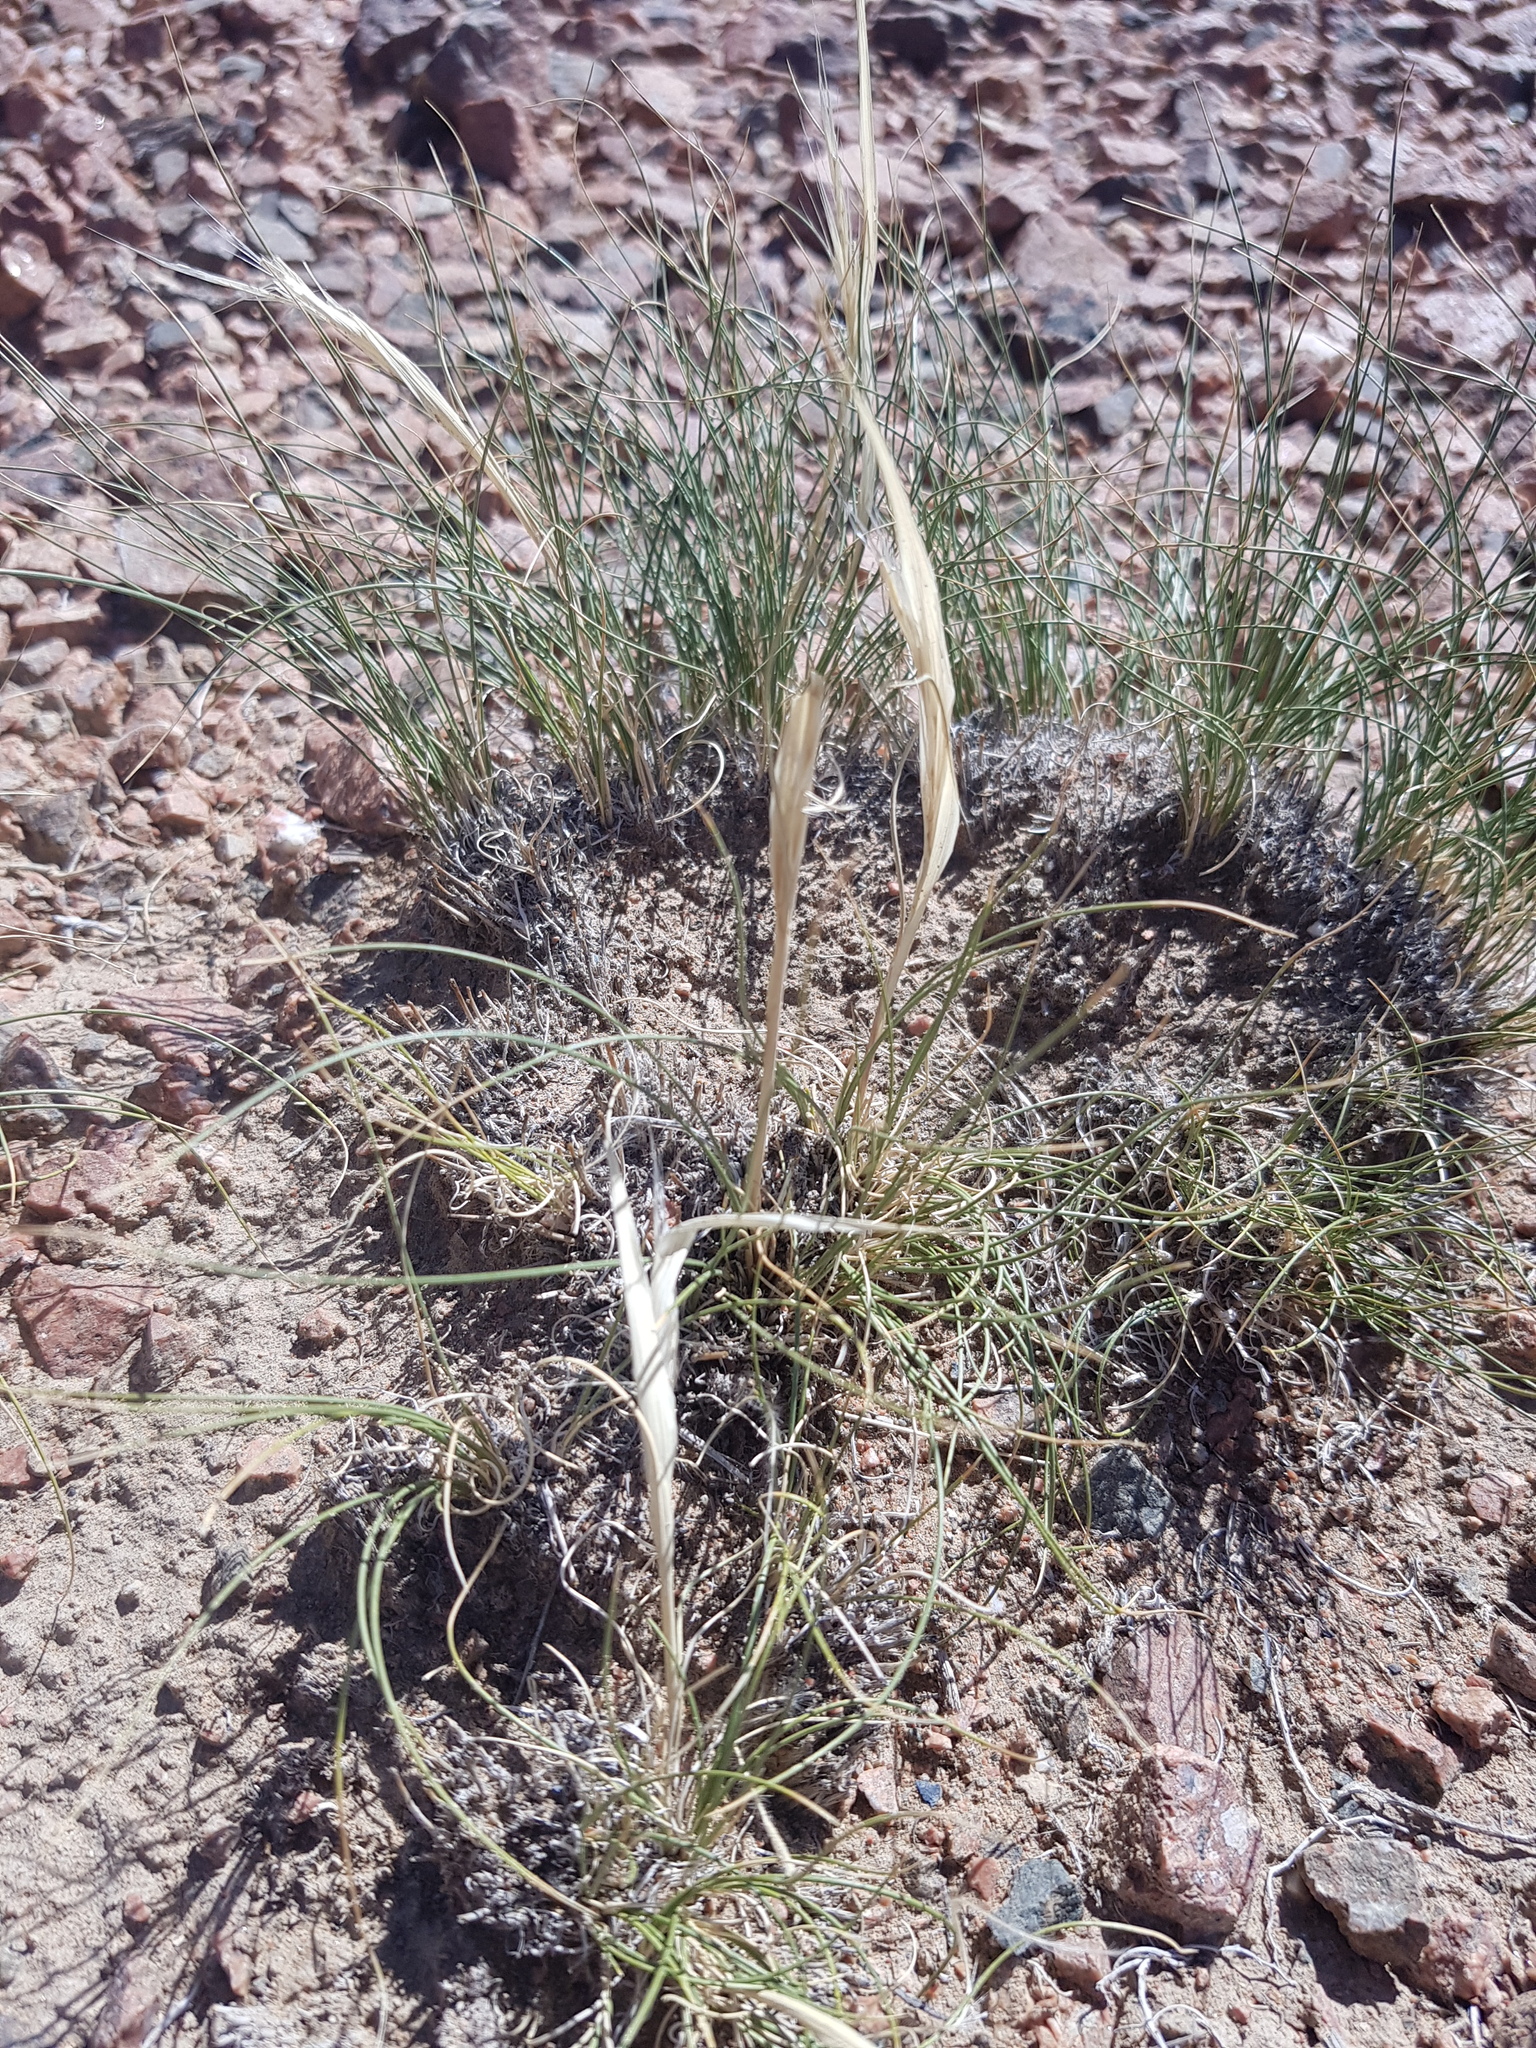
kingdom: Plantae
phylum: Tracheophyta
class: Liliopsida
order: Poales
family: Poaceae
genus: Stipa
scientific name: Stipa glareosa
